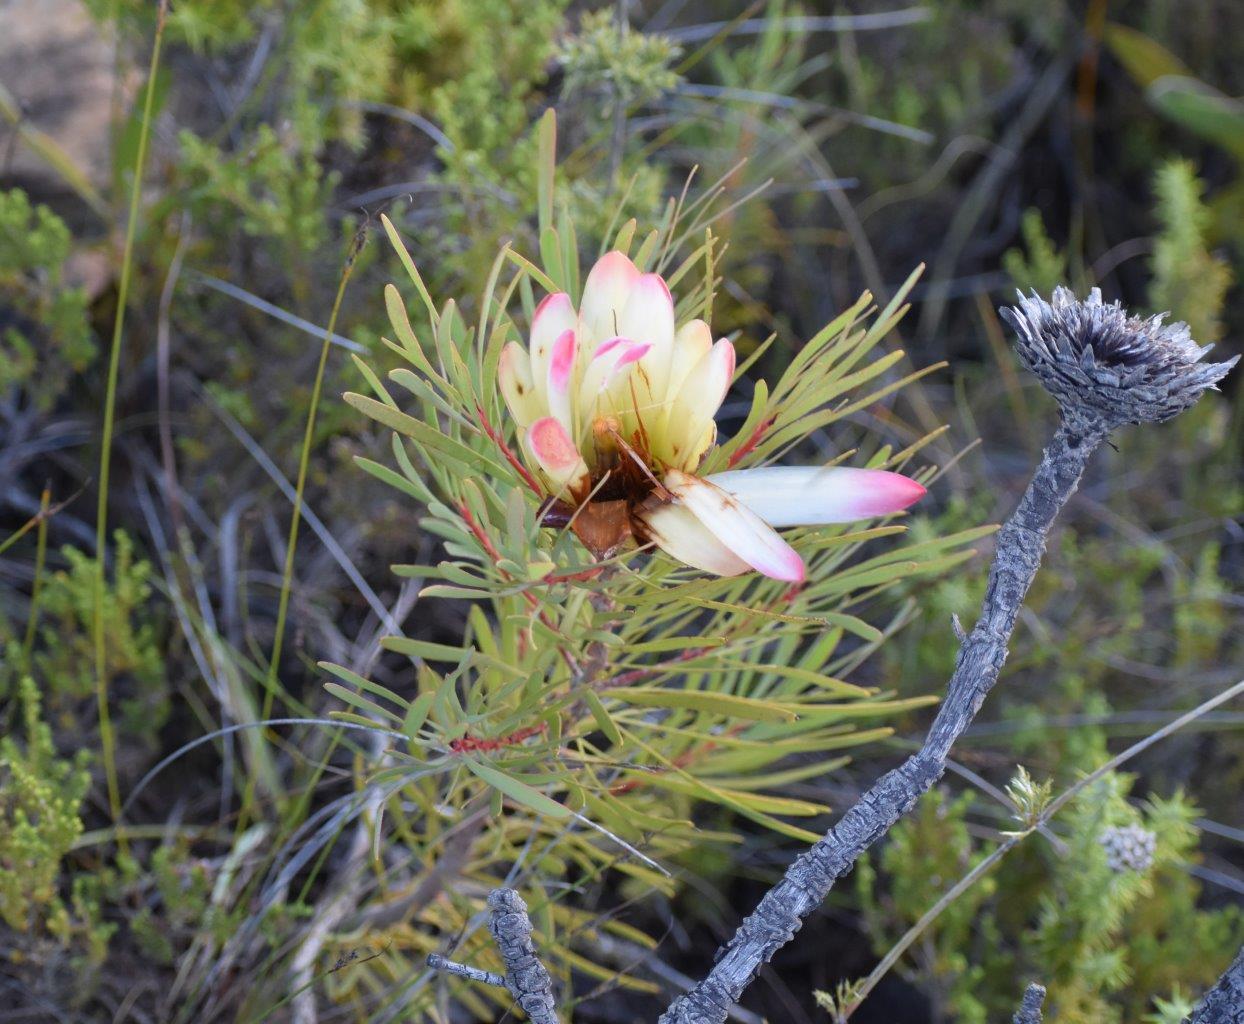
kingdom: Plantae
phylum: Tracheophyta
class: Magnoliopsida
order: Proteales
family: Proteaceae
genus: Protea
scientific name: Protea repens
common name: Sugarbush
